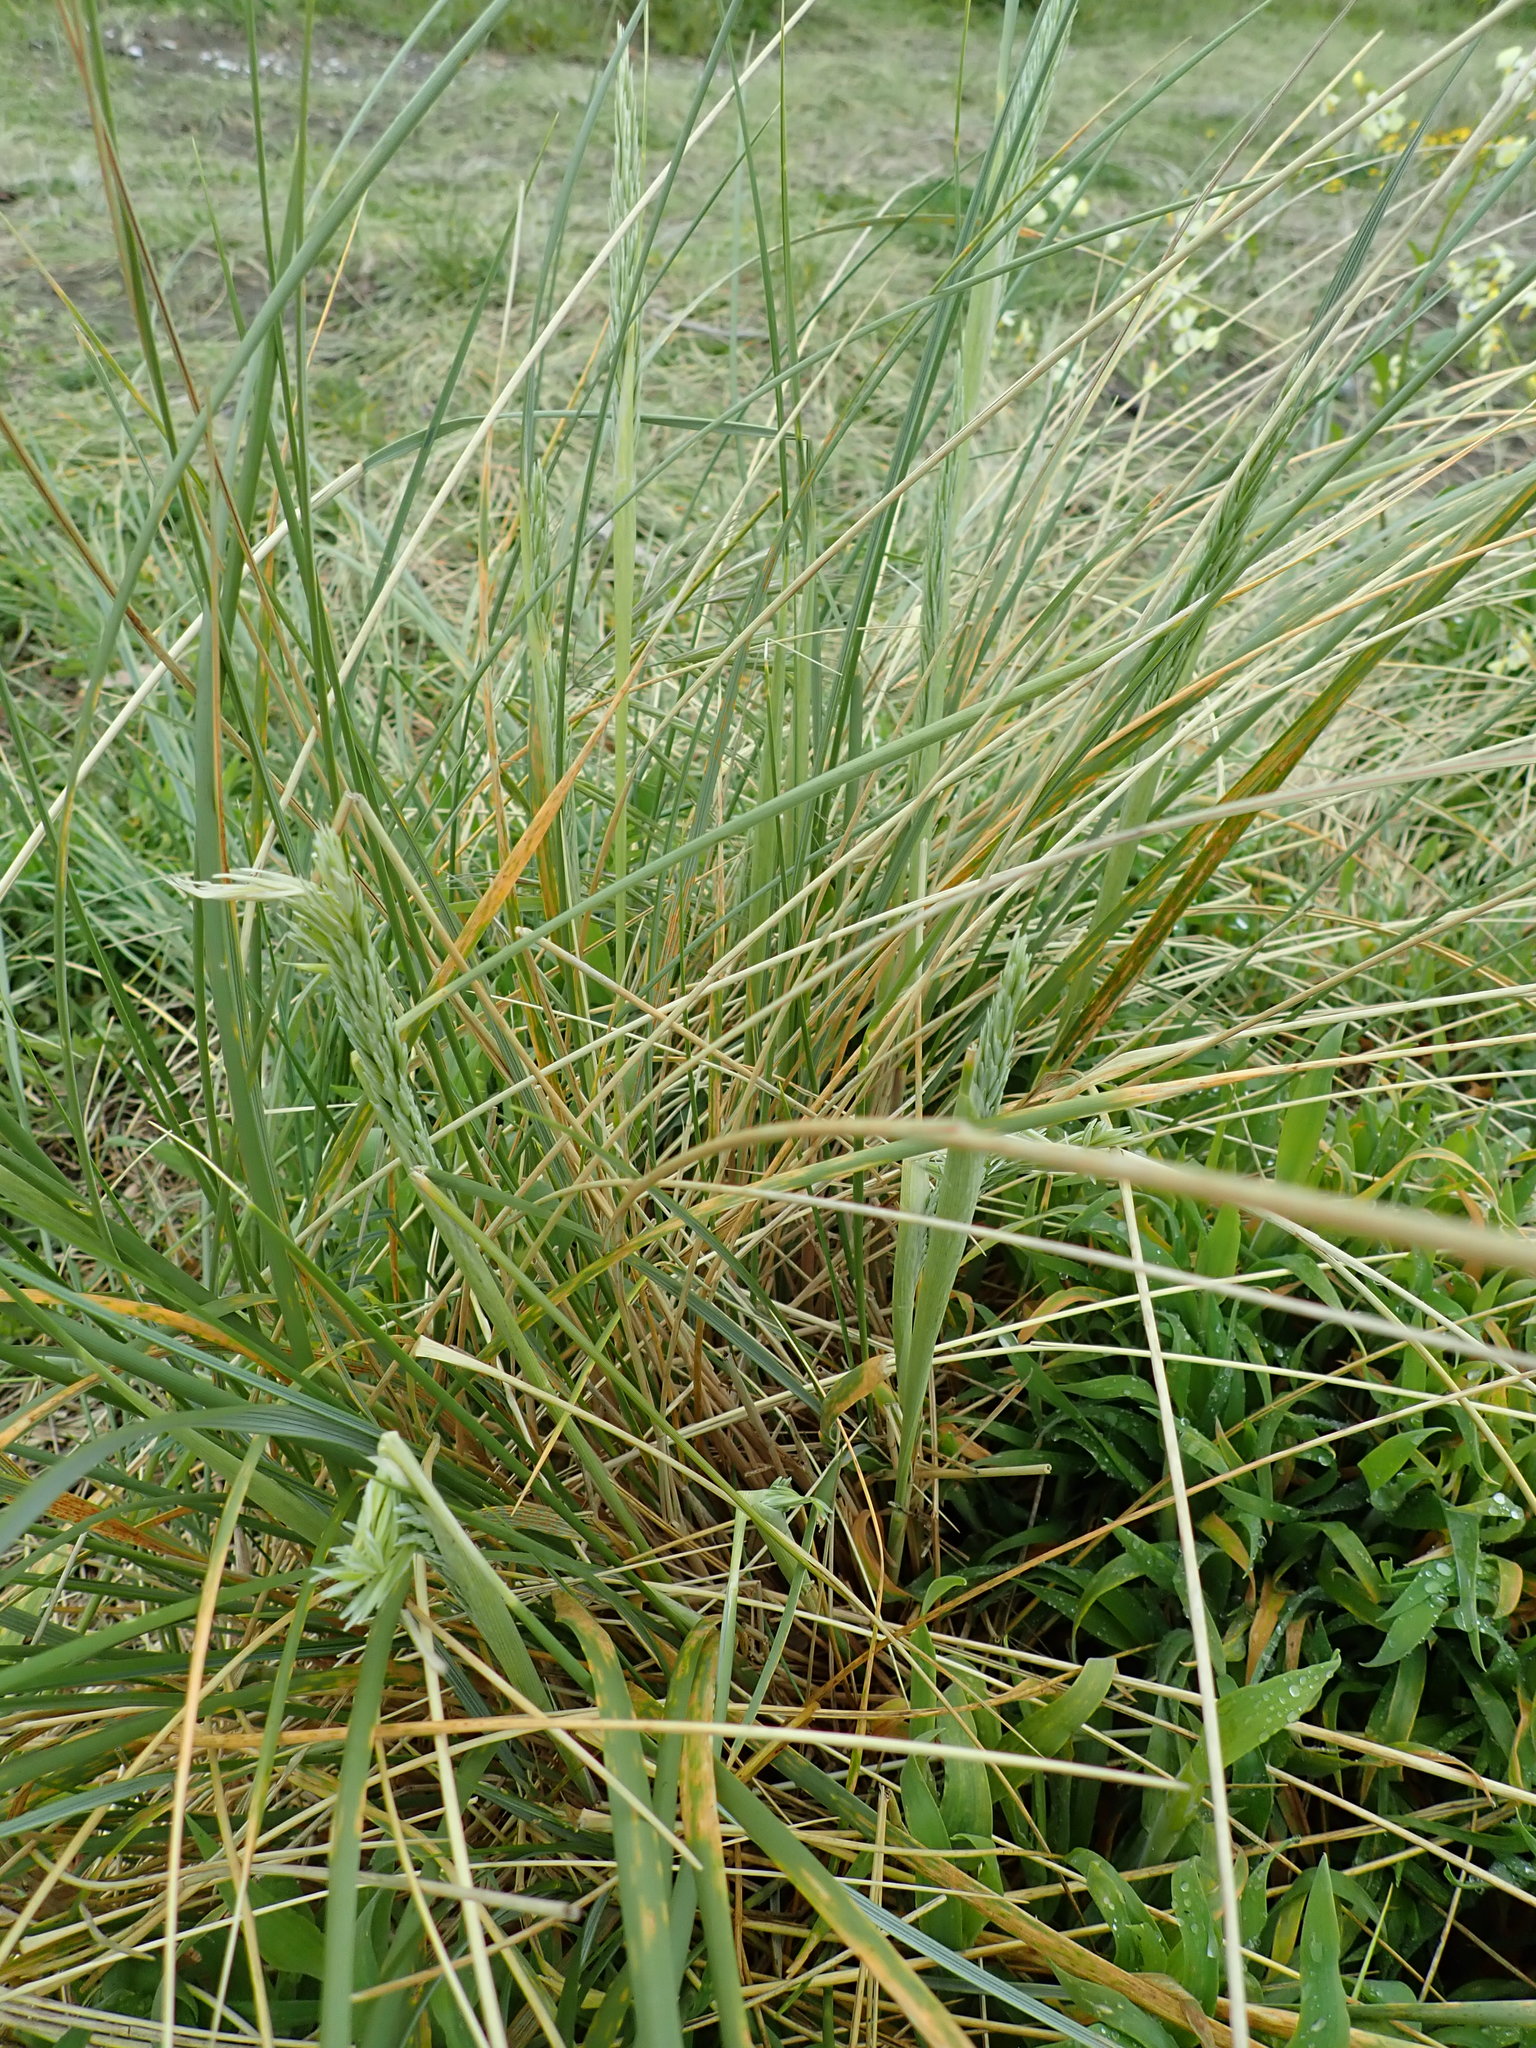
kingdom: Plantae
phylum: Tracheophyta
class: Liliopsida
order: Poales
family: Poaceae
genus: Calamagrostis
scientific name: Calamagrostis arenaria
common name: European beachgrass
